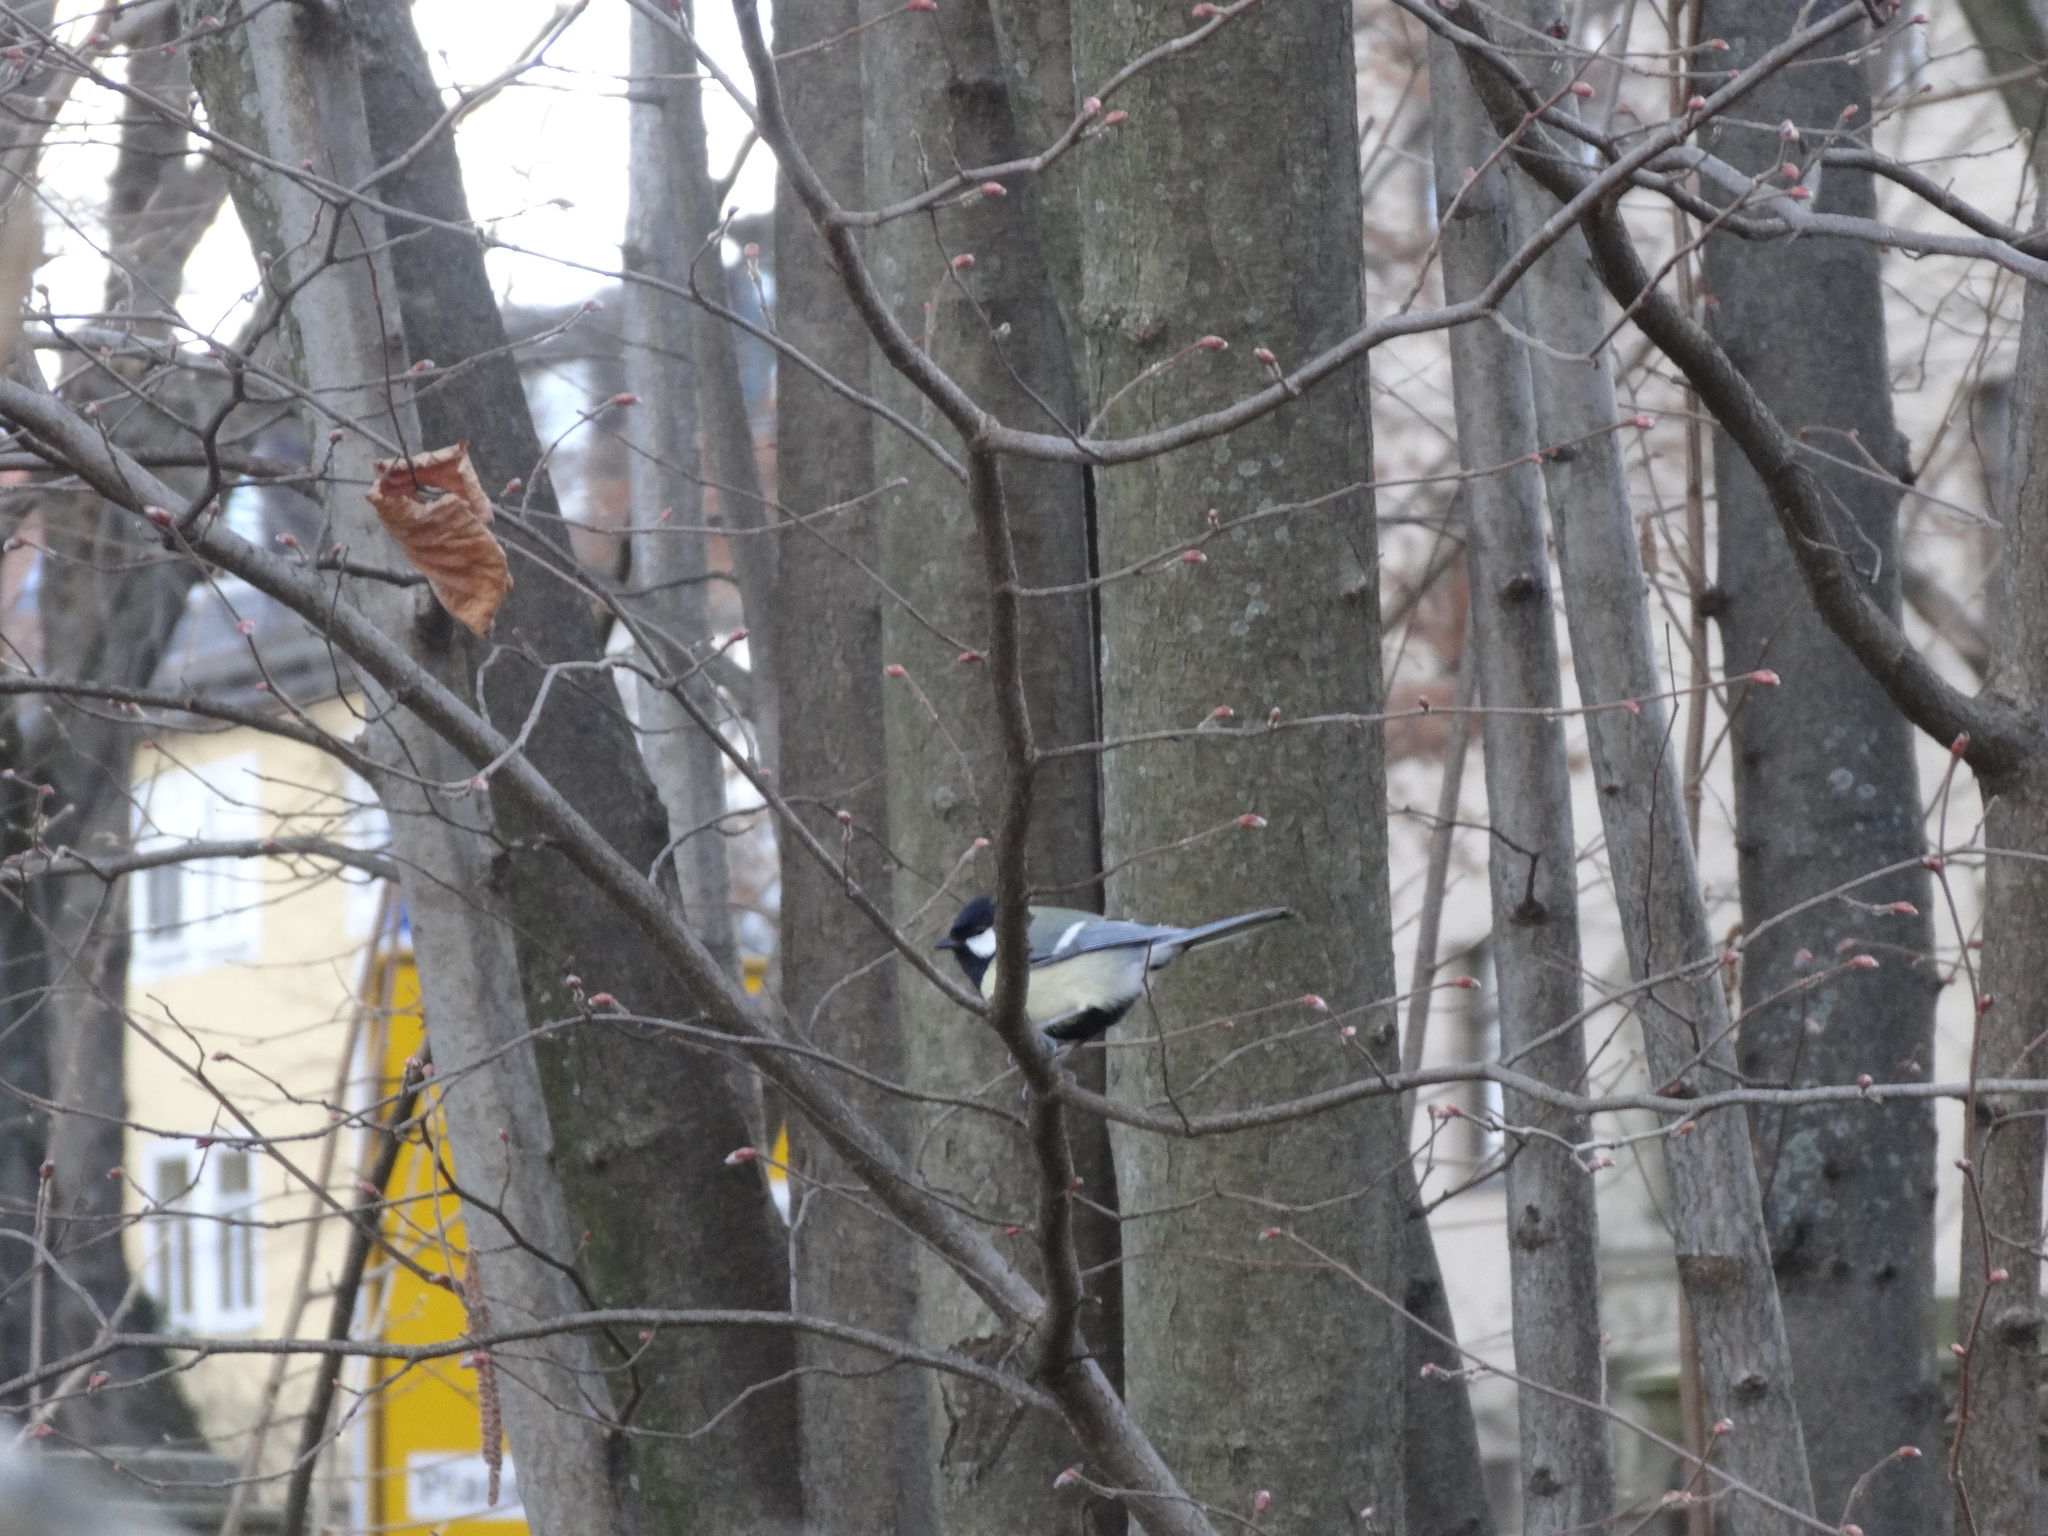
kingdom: Animalia
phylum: Chordata
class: Aves
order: Passeriformes
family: Paridae
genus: Parus
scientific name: Parus major
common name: Great tit
